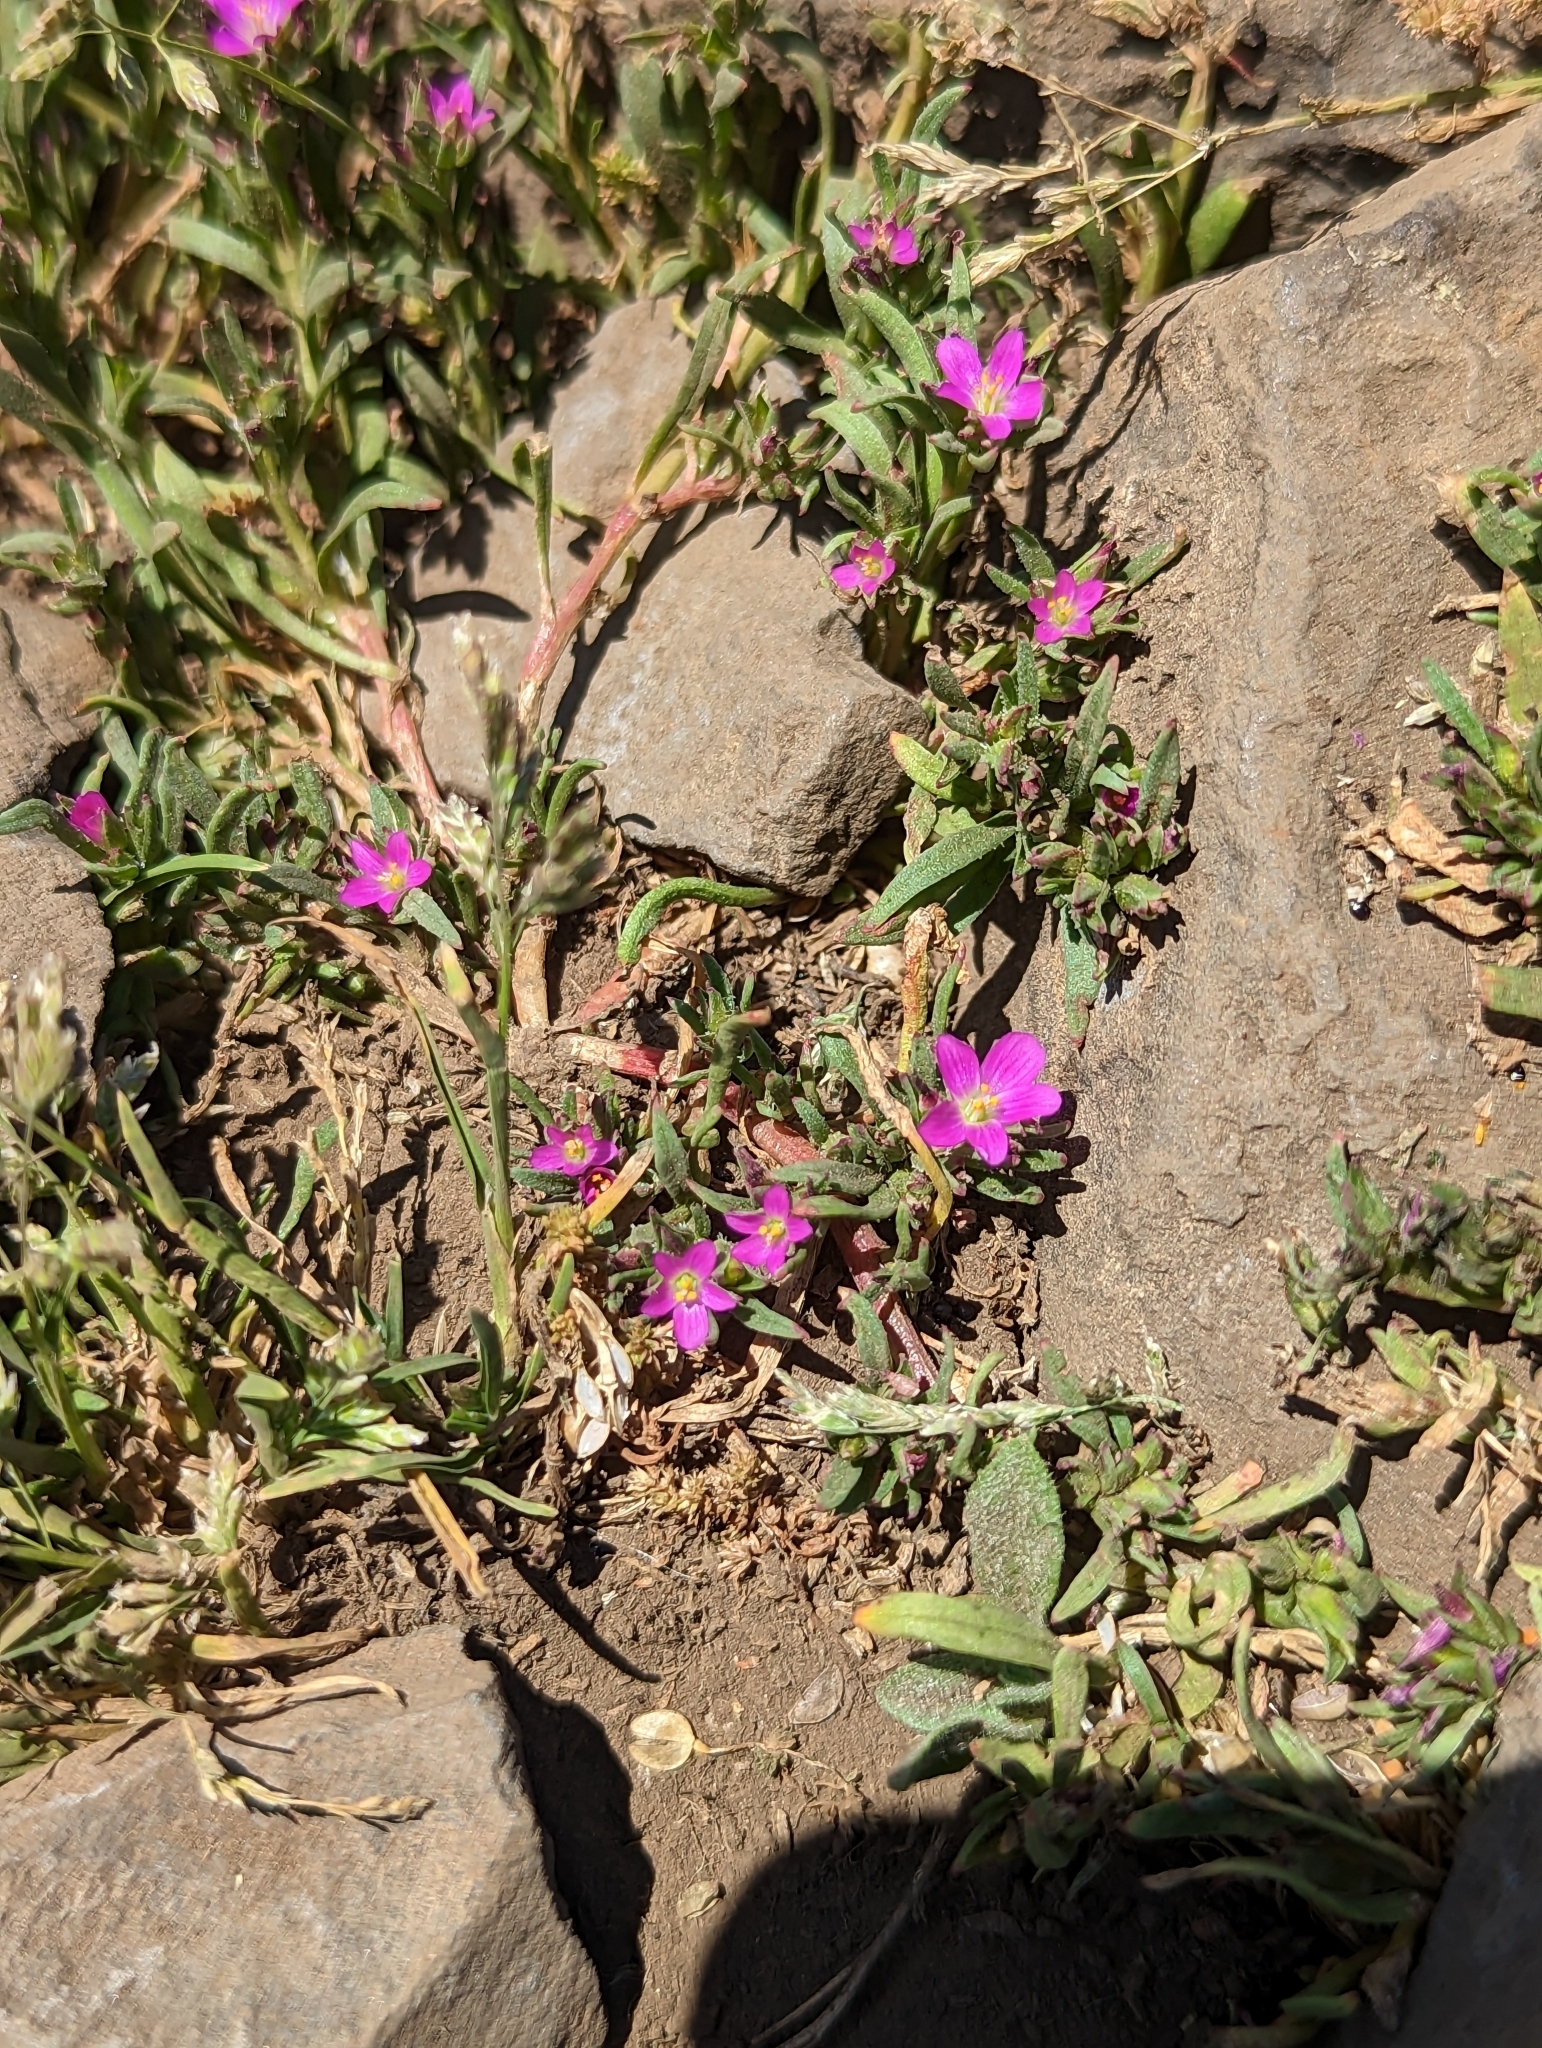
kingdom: Plantae
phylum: Tracheophyta
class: Magnoliopsida
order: Caryophyllales
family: Montiaceae
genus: Calandrinia
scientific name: Calandrinia menziesii
